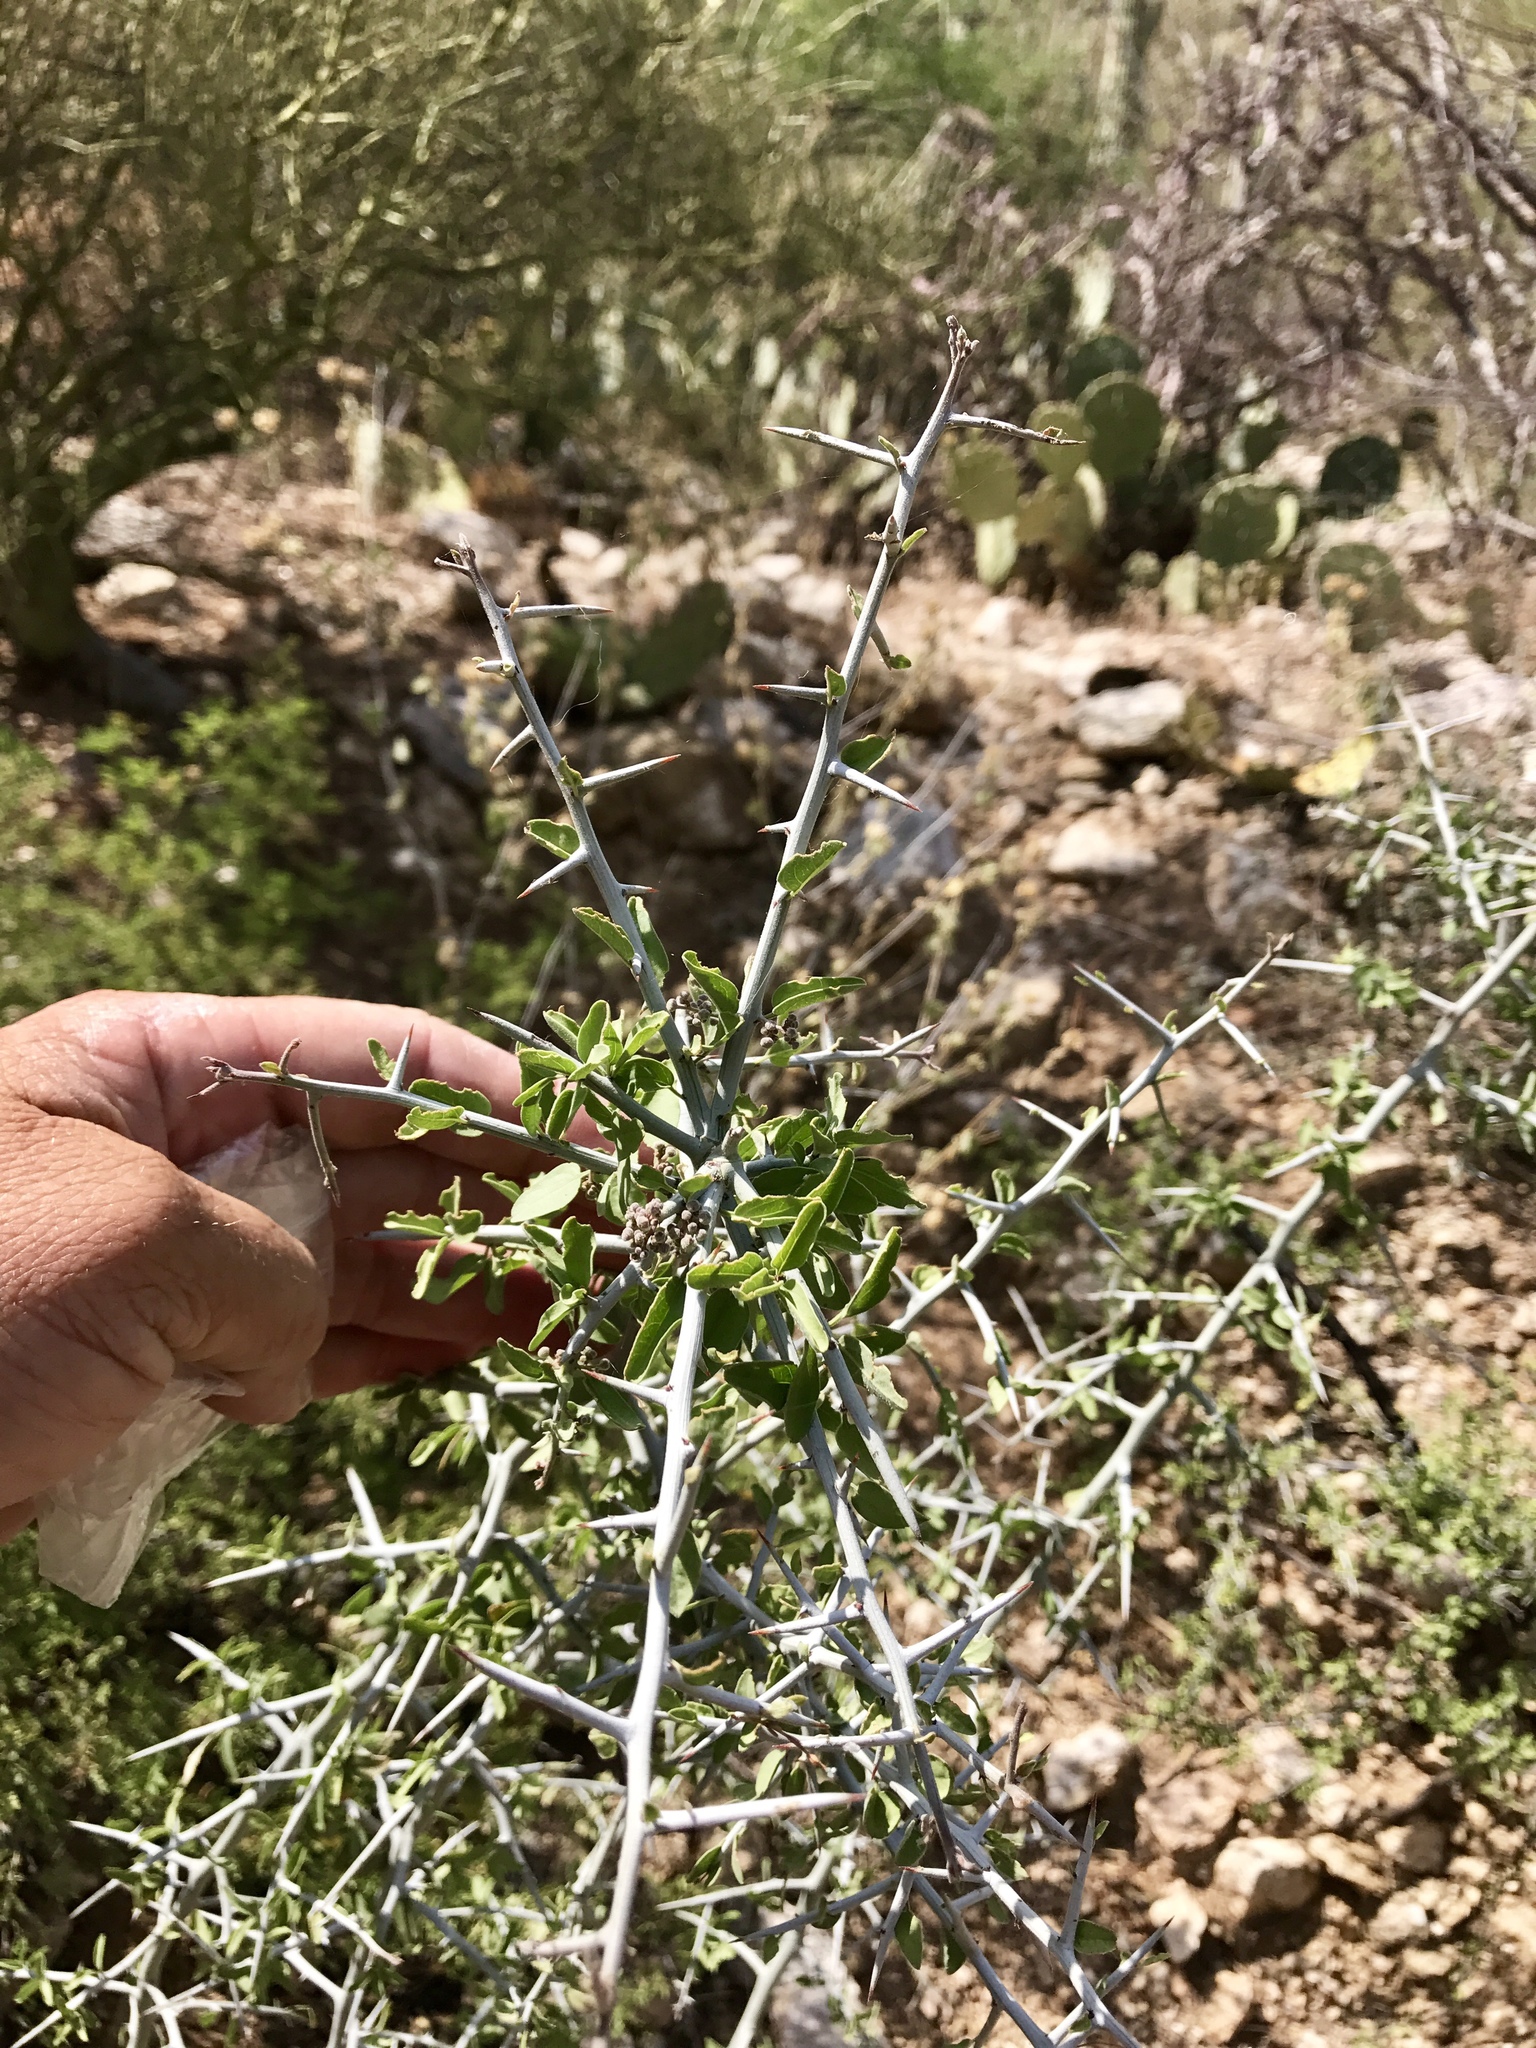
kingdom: Plantae
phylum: Tracheophyta
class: Magnoliopsida
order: Rosales
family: Rhamnaceae
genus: Sarcomphalus
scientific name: Sarcomphalus obtusifolius
